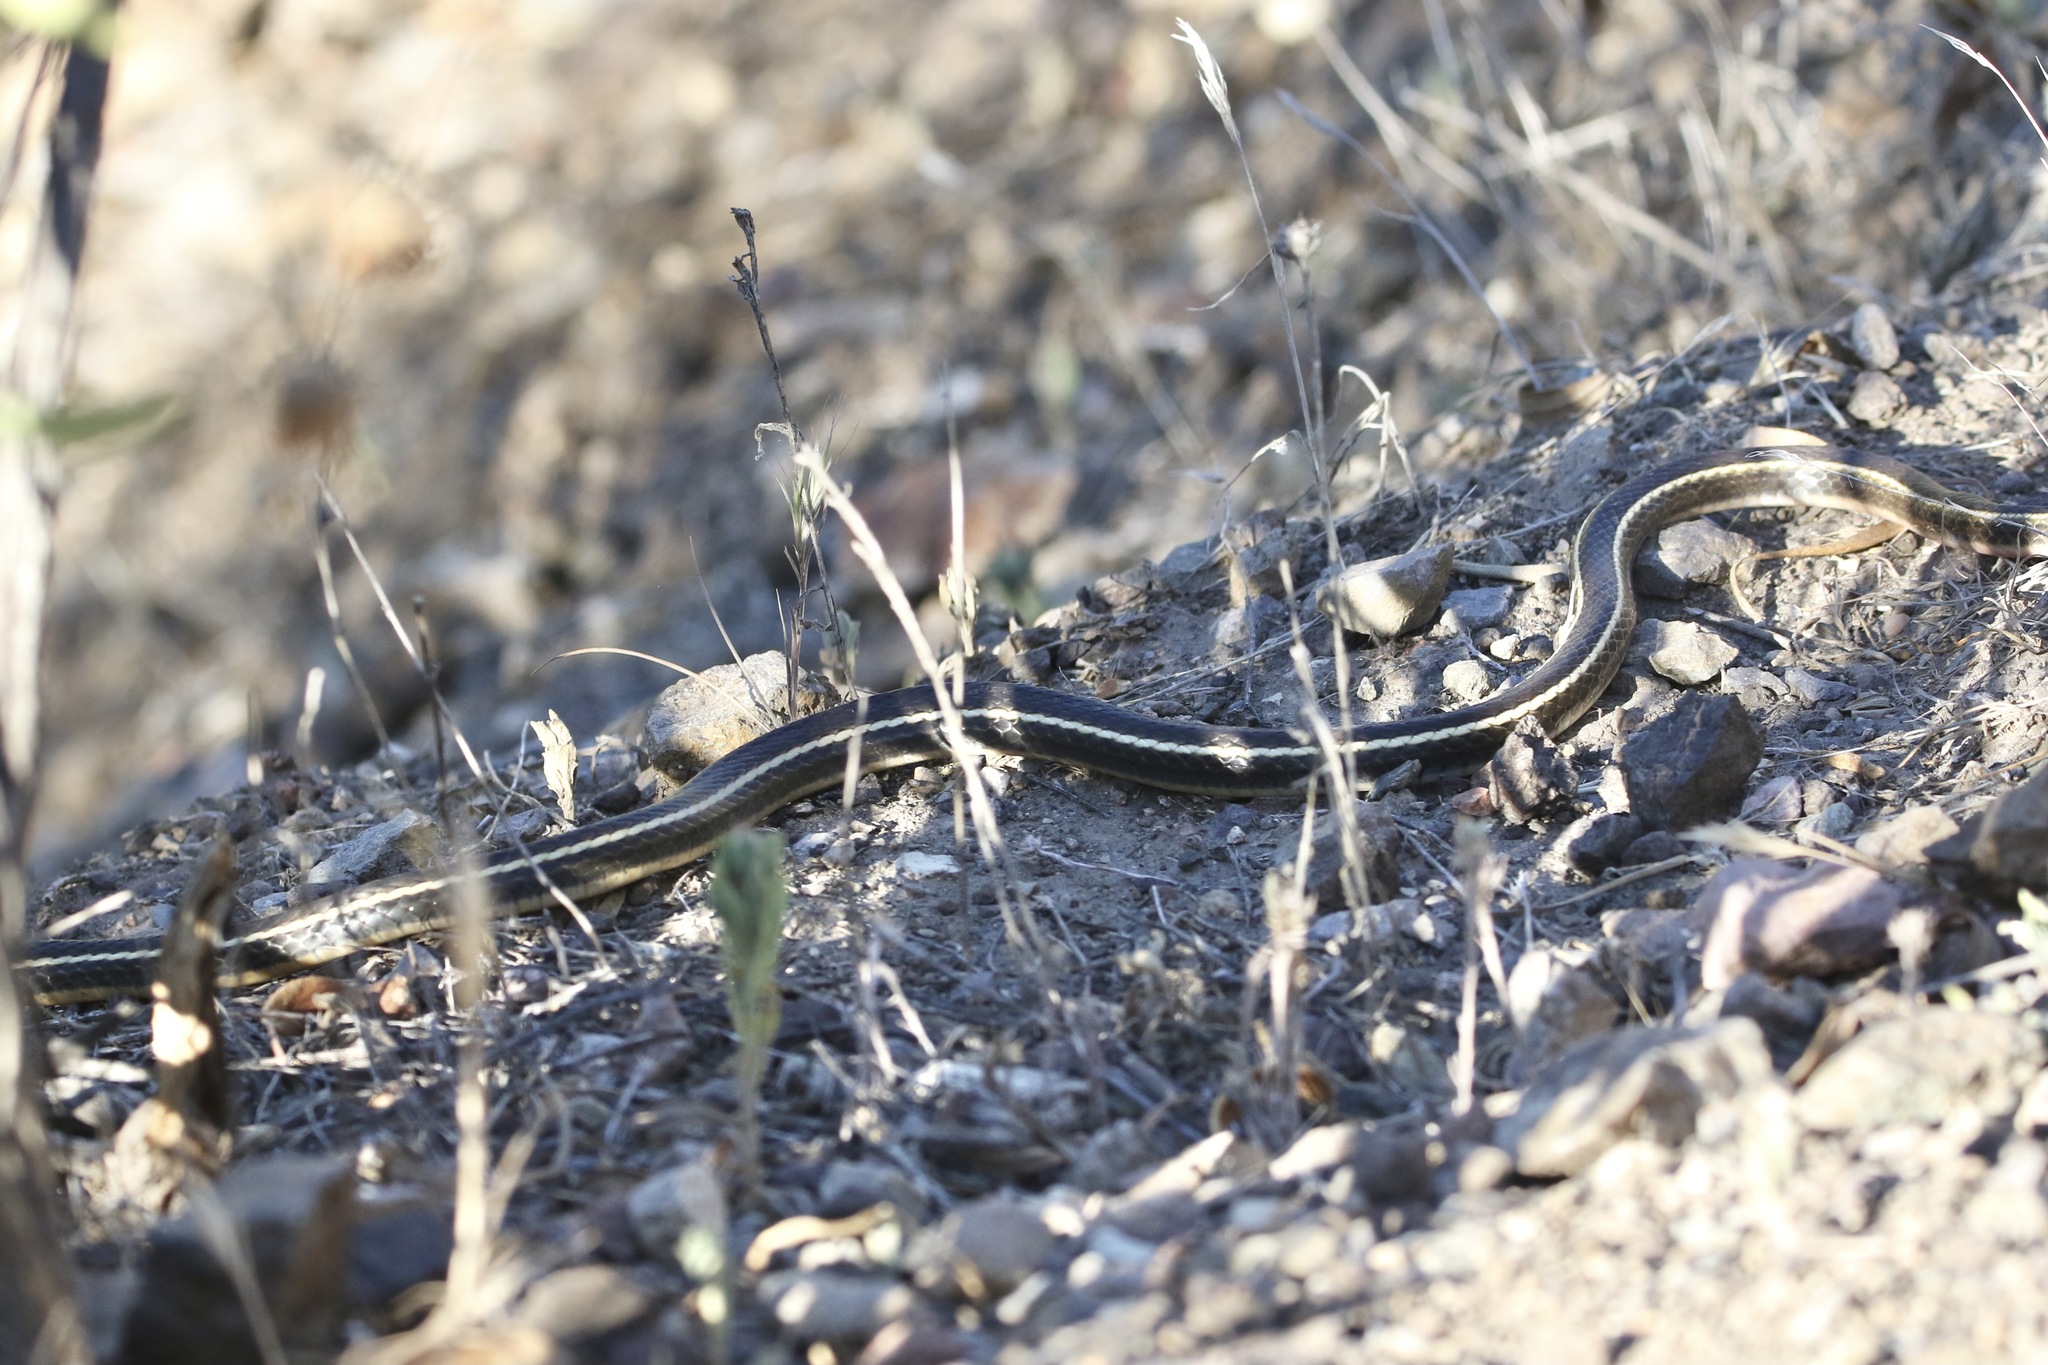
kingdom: Animalia
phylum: Chordata
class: Squamata
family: Colubridae
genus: Masticophis
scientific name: Masticophis lateralis
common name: Striped racer
